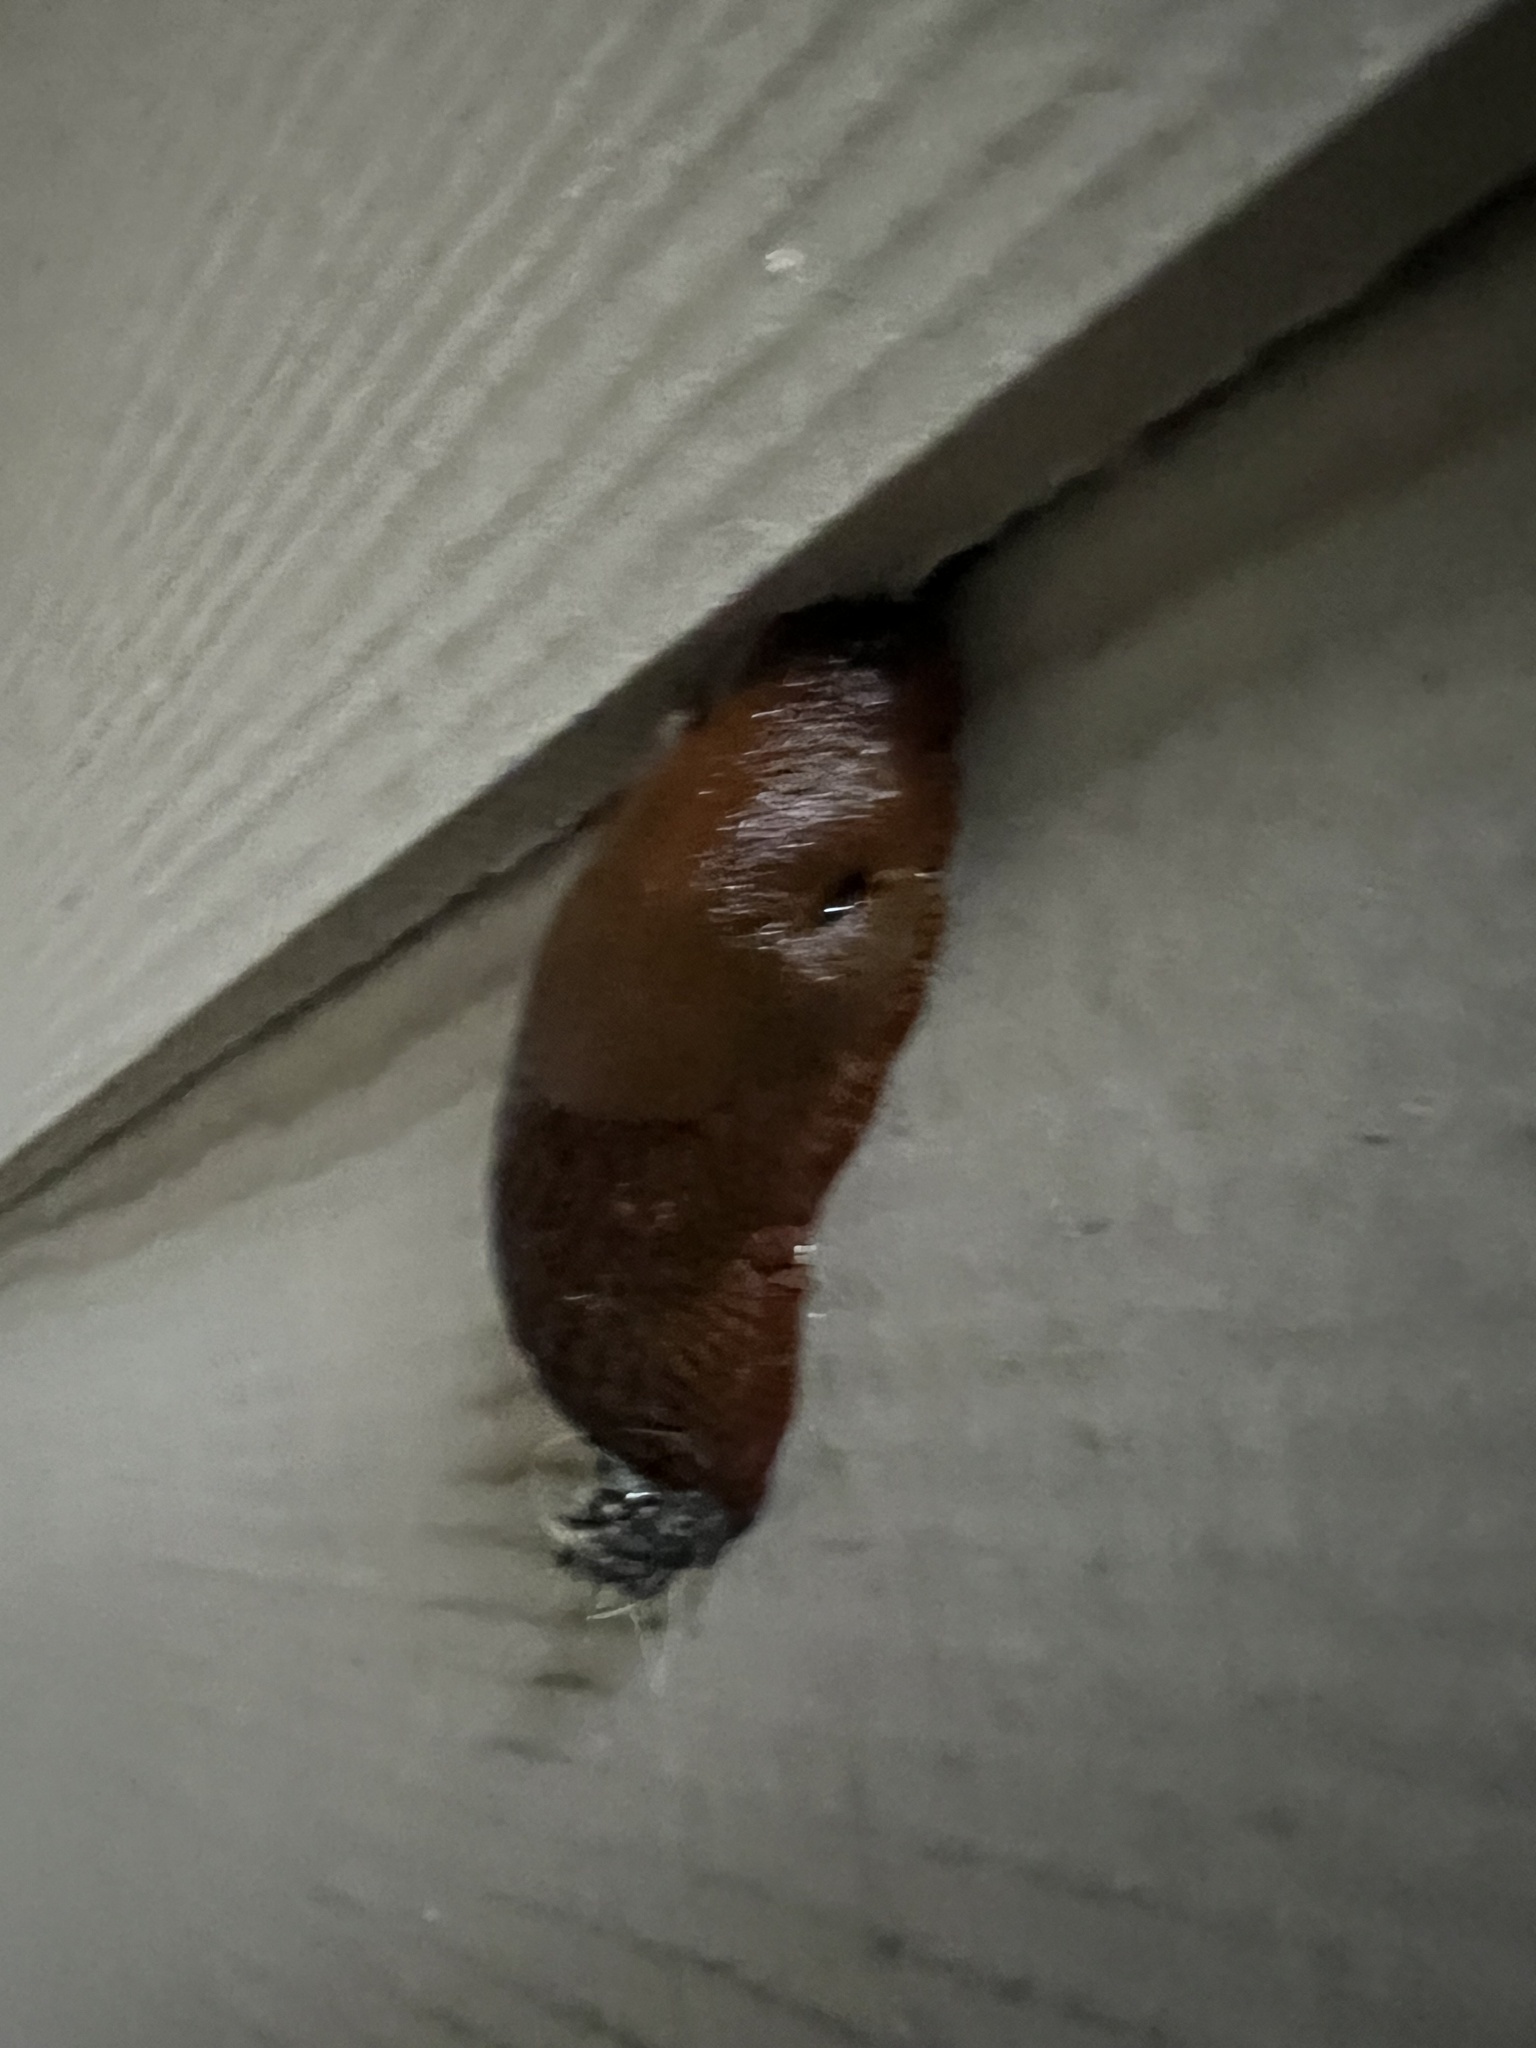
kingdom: Animalia
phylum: Mollusca
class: Gastropoda
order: Stylommatophora
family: Arionidae
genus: Arion
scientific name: Arion
